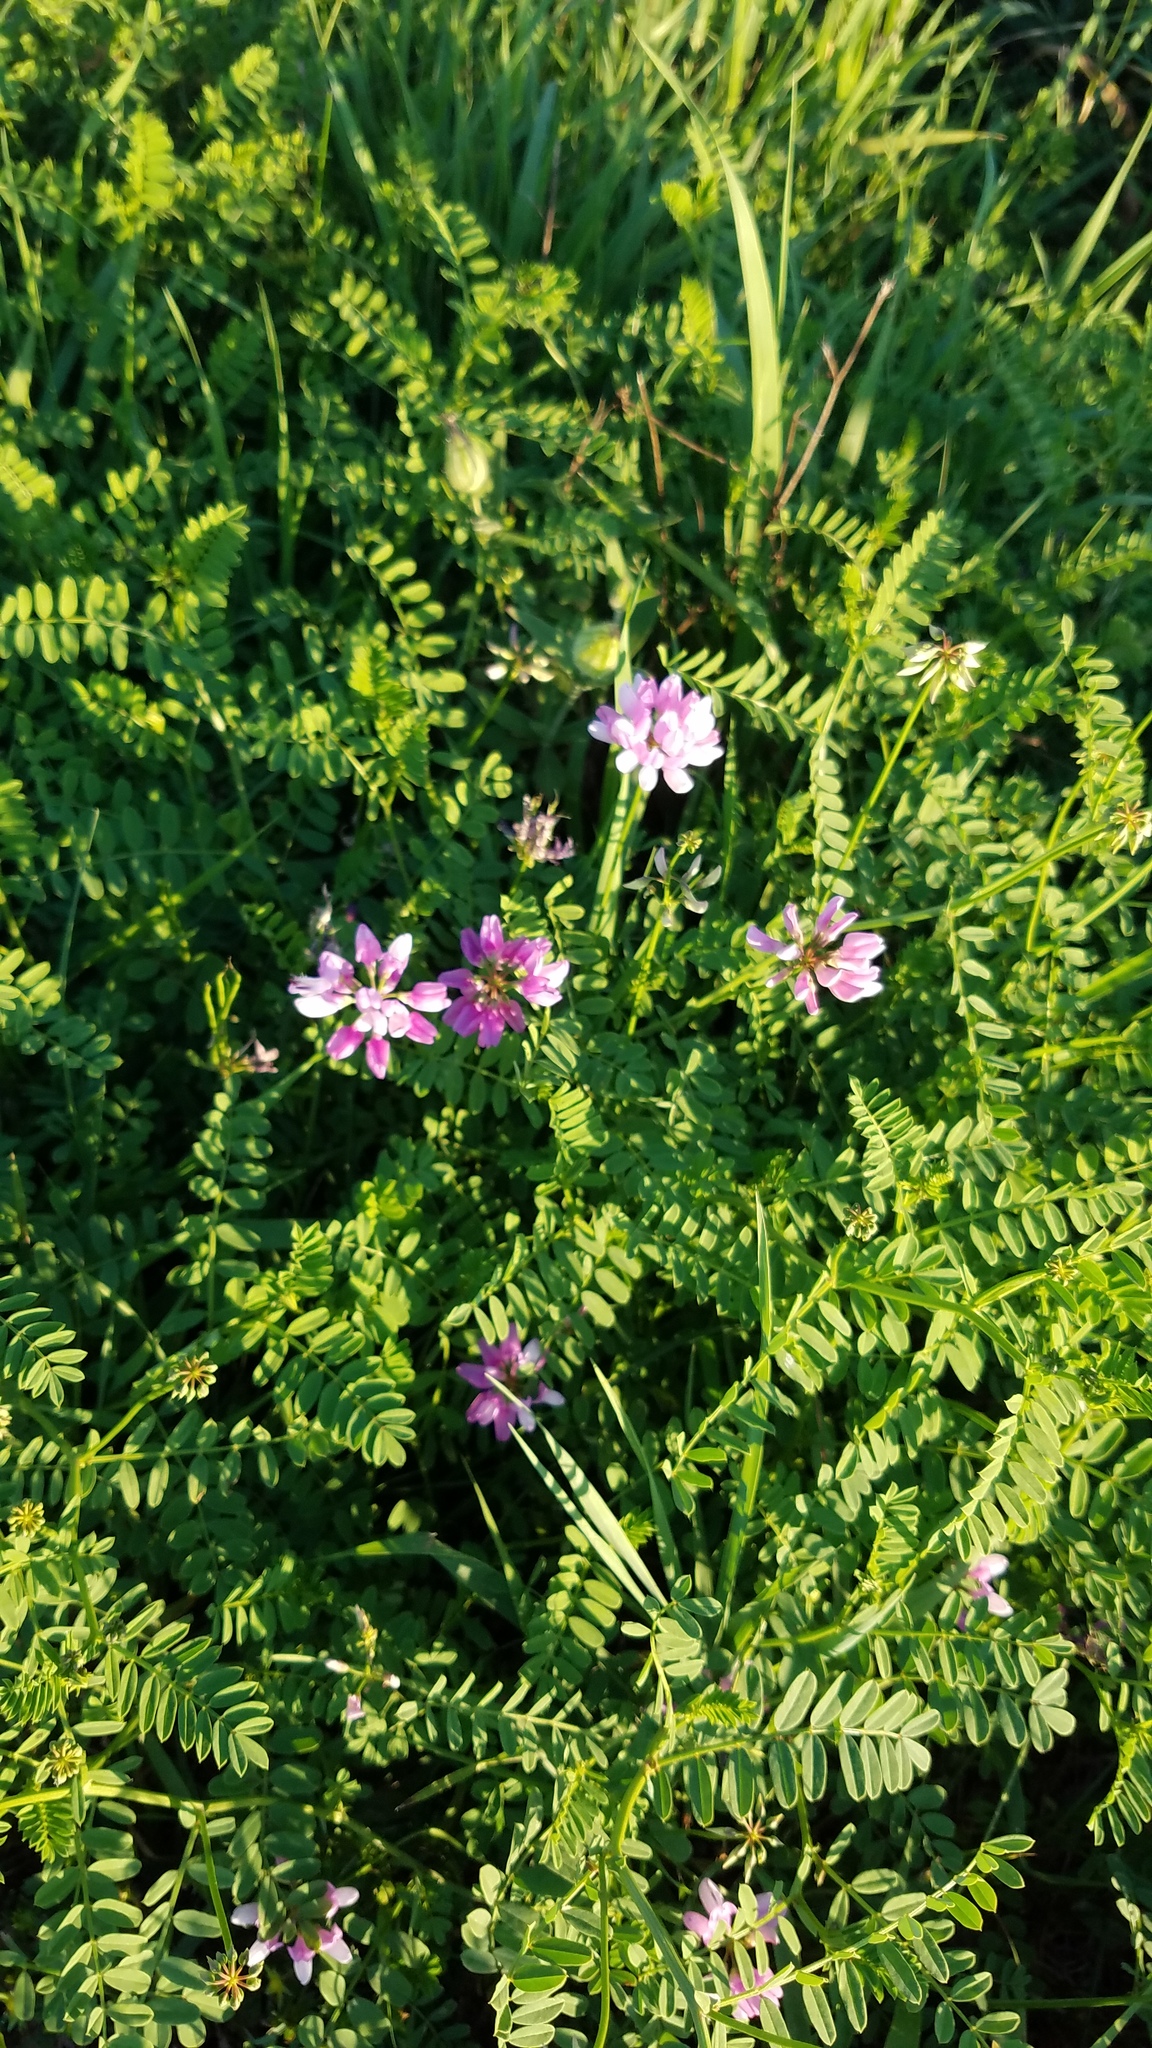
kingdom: Plantae
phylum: Tracheophyta
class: Magnoliopsida
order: Fabales
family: Fabaceae
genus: Coronilla
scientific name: Coronilla varia
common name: Crownvetch
